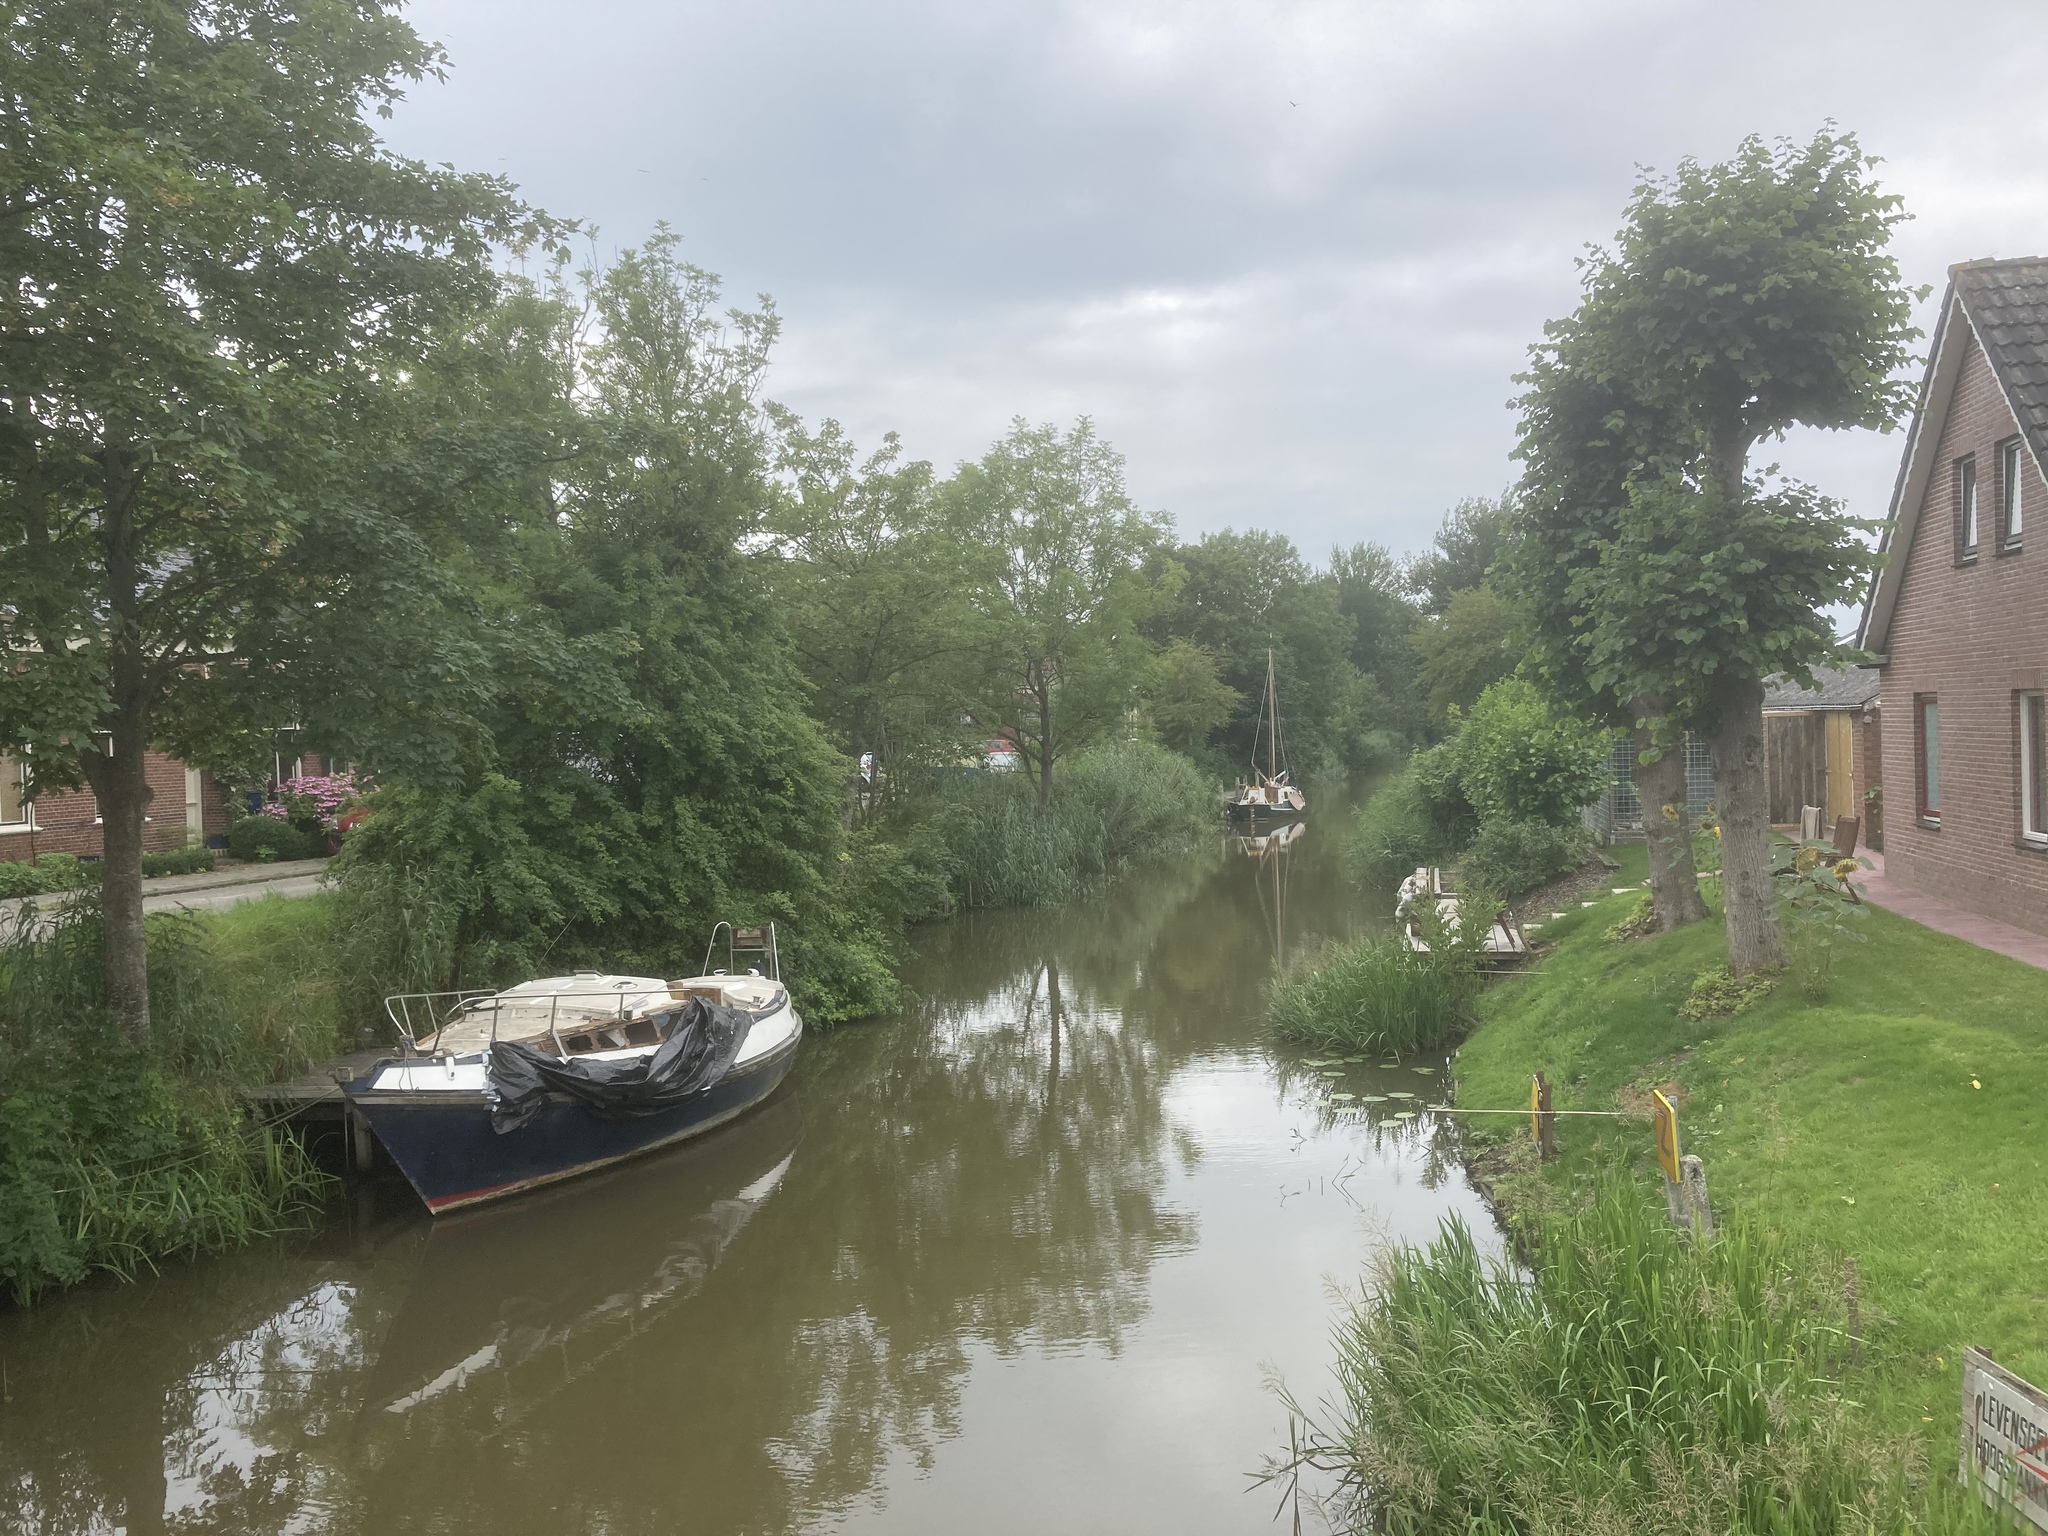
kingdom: Plantae
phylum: Tracheophyta
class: Liliopsida
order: Poales
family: Poaceae
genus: Phragmites
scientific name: Phragmites australis
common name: Common reed
